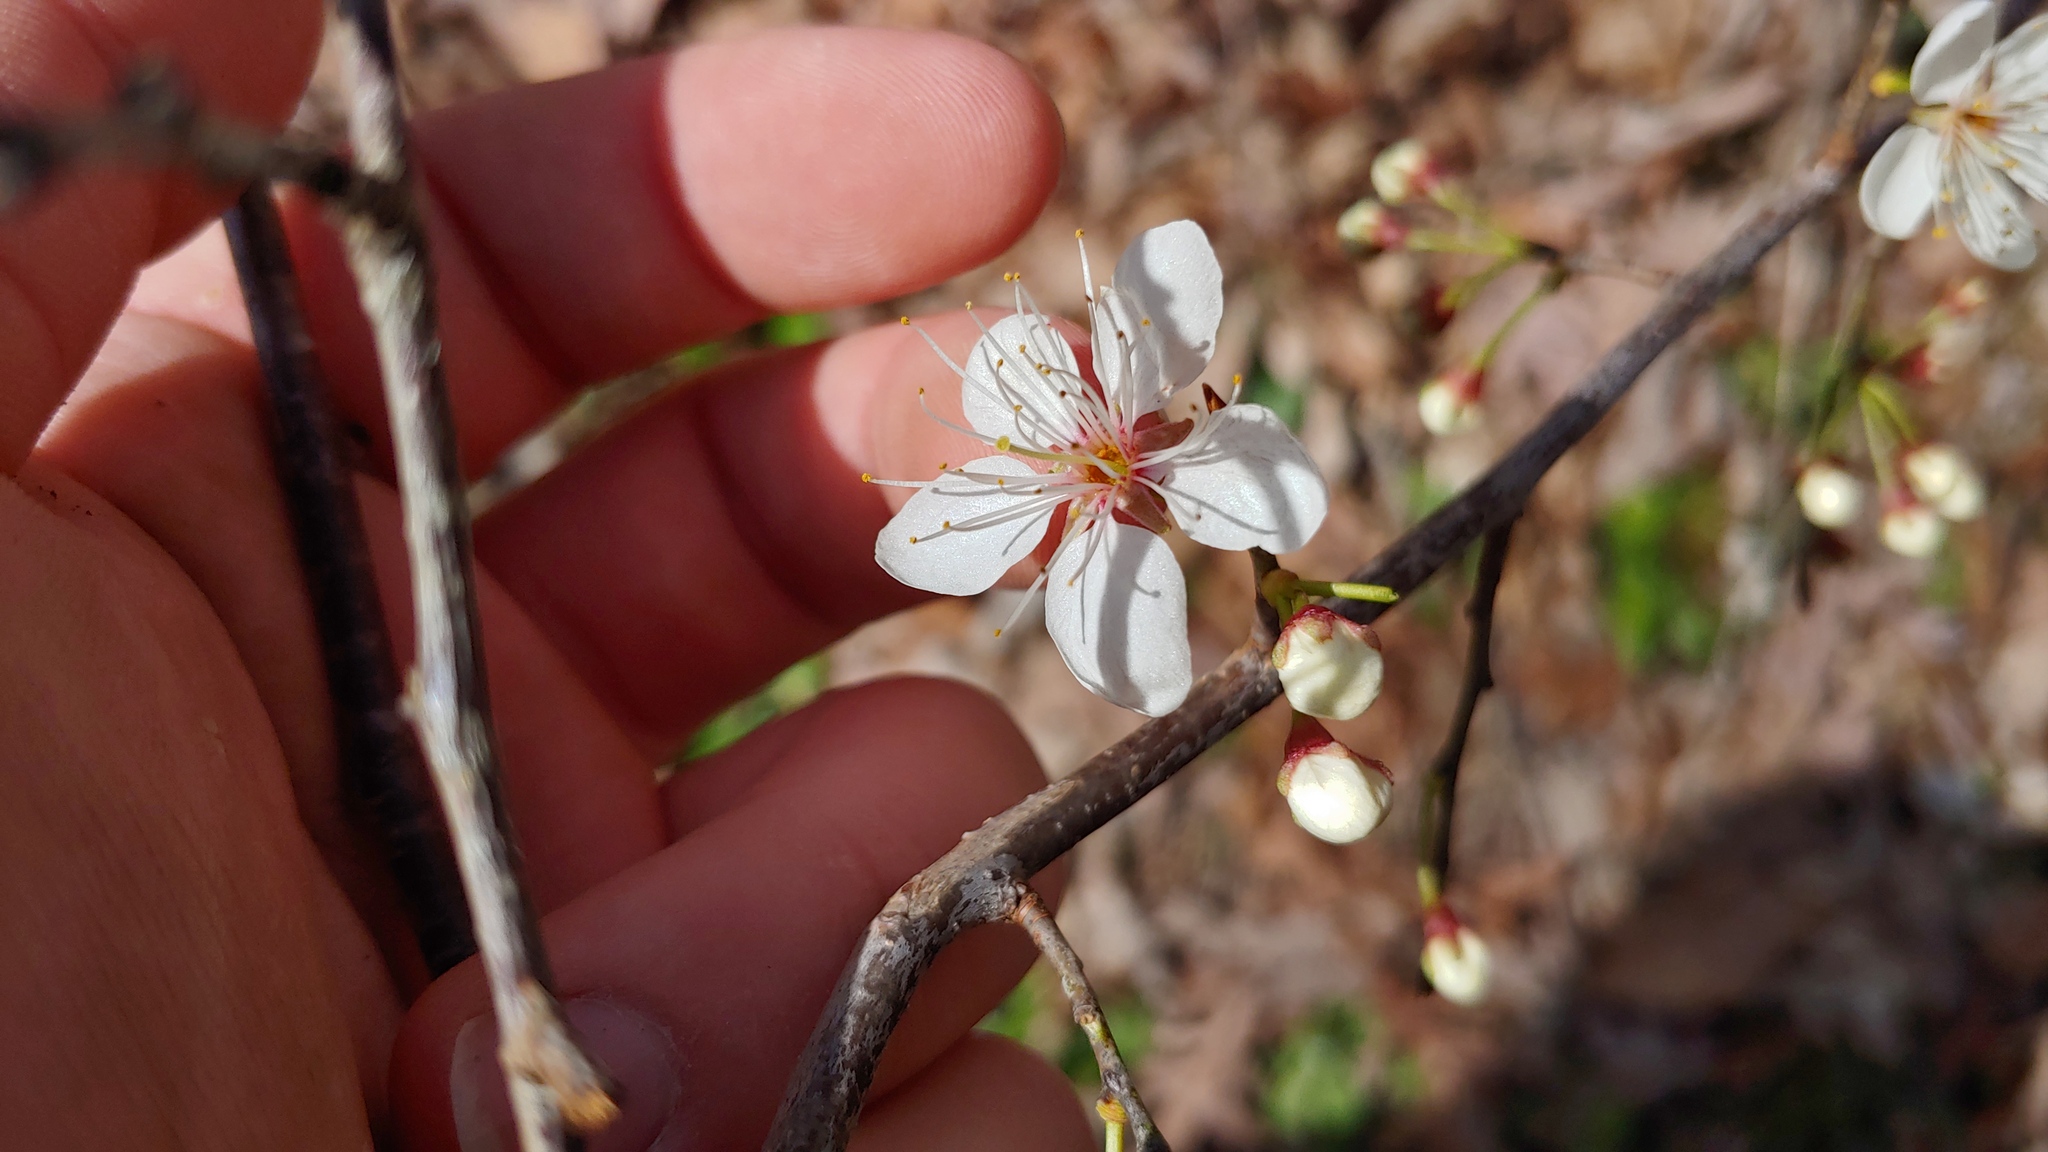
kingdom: Plantae
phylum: Tracheophyta
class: Magnoliopsida
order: Rosales
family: Rosaceae
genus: Prunus
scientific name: Prunus mexicana
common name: Mexican plum
